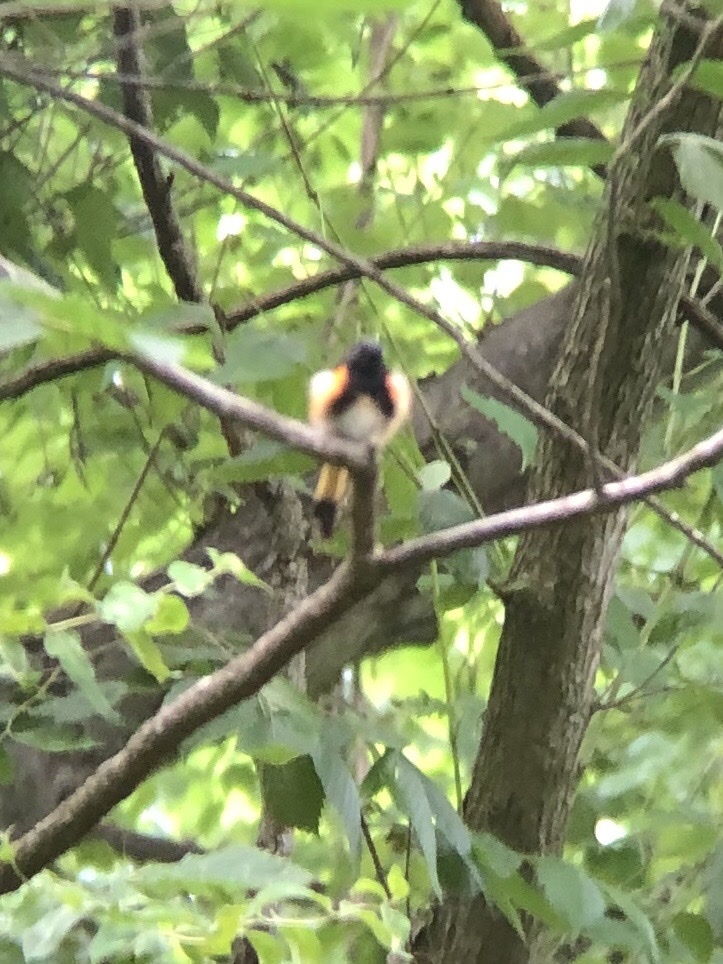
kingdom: Animalia
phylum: Chordata
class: Aves
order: Passeriformes
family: Parulidae
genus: Setophaga
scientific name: Setophaga ruticilla
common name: American redstart
